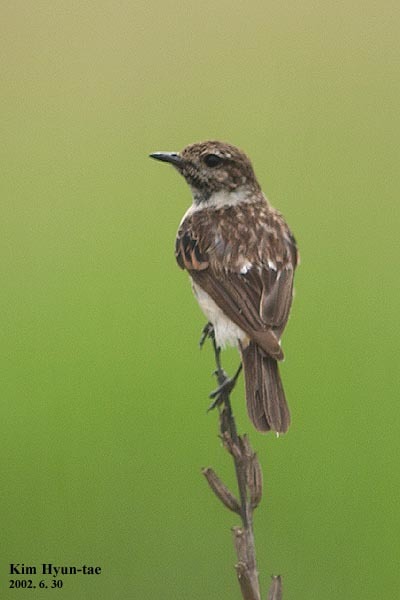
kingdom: Animalia
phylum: Chordata
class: Aves
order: Passeriformes
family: Muscicapidae
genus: Saxicola
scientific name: Saxicola stejnegeri
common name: Stejneger's stonechat
